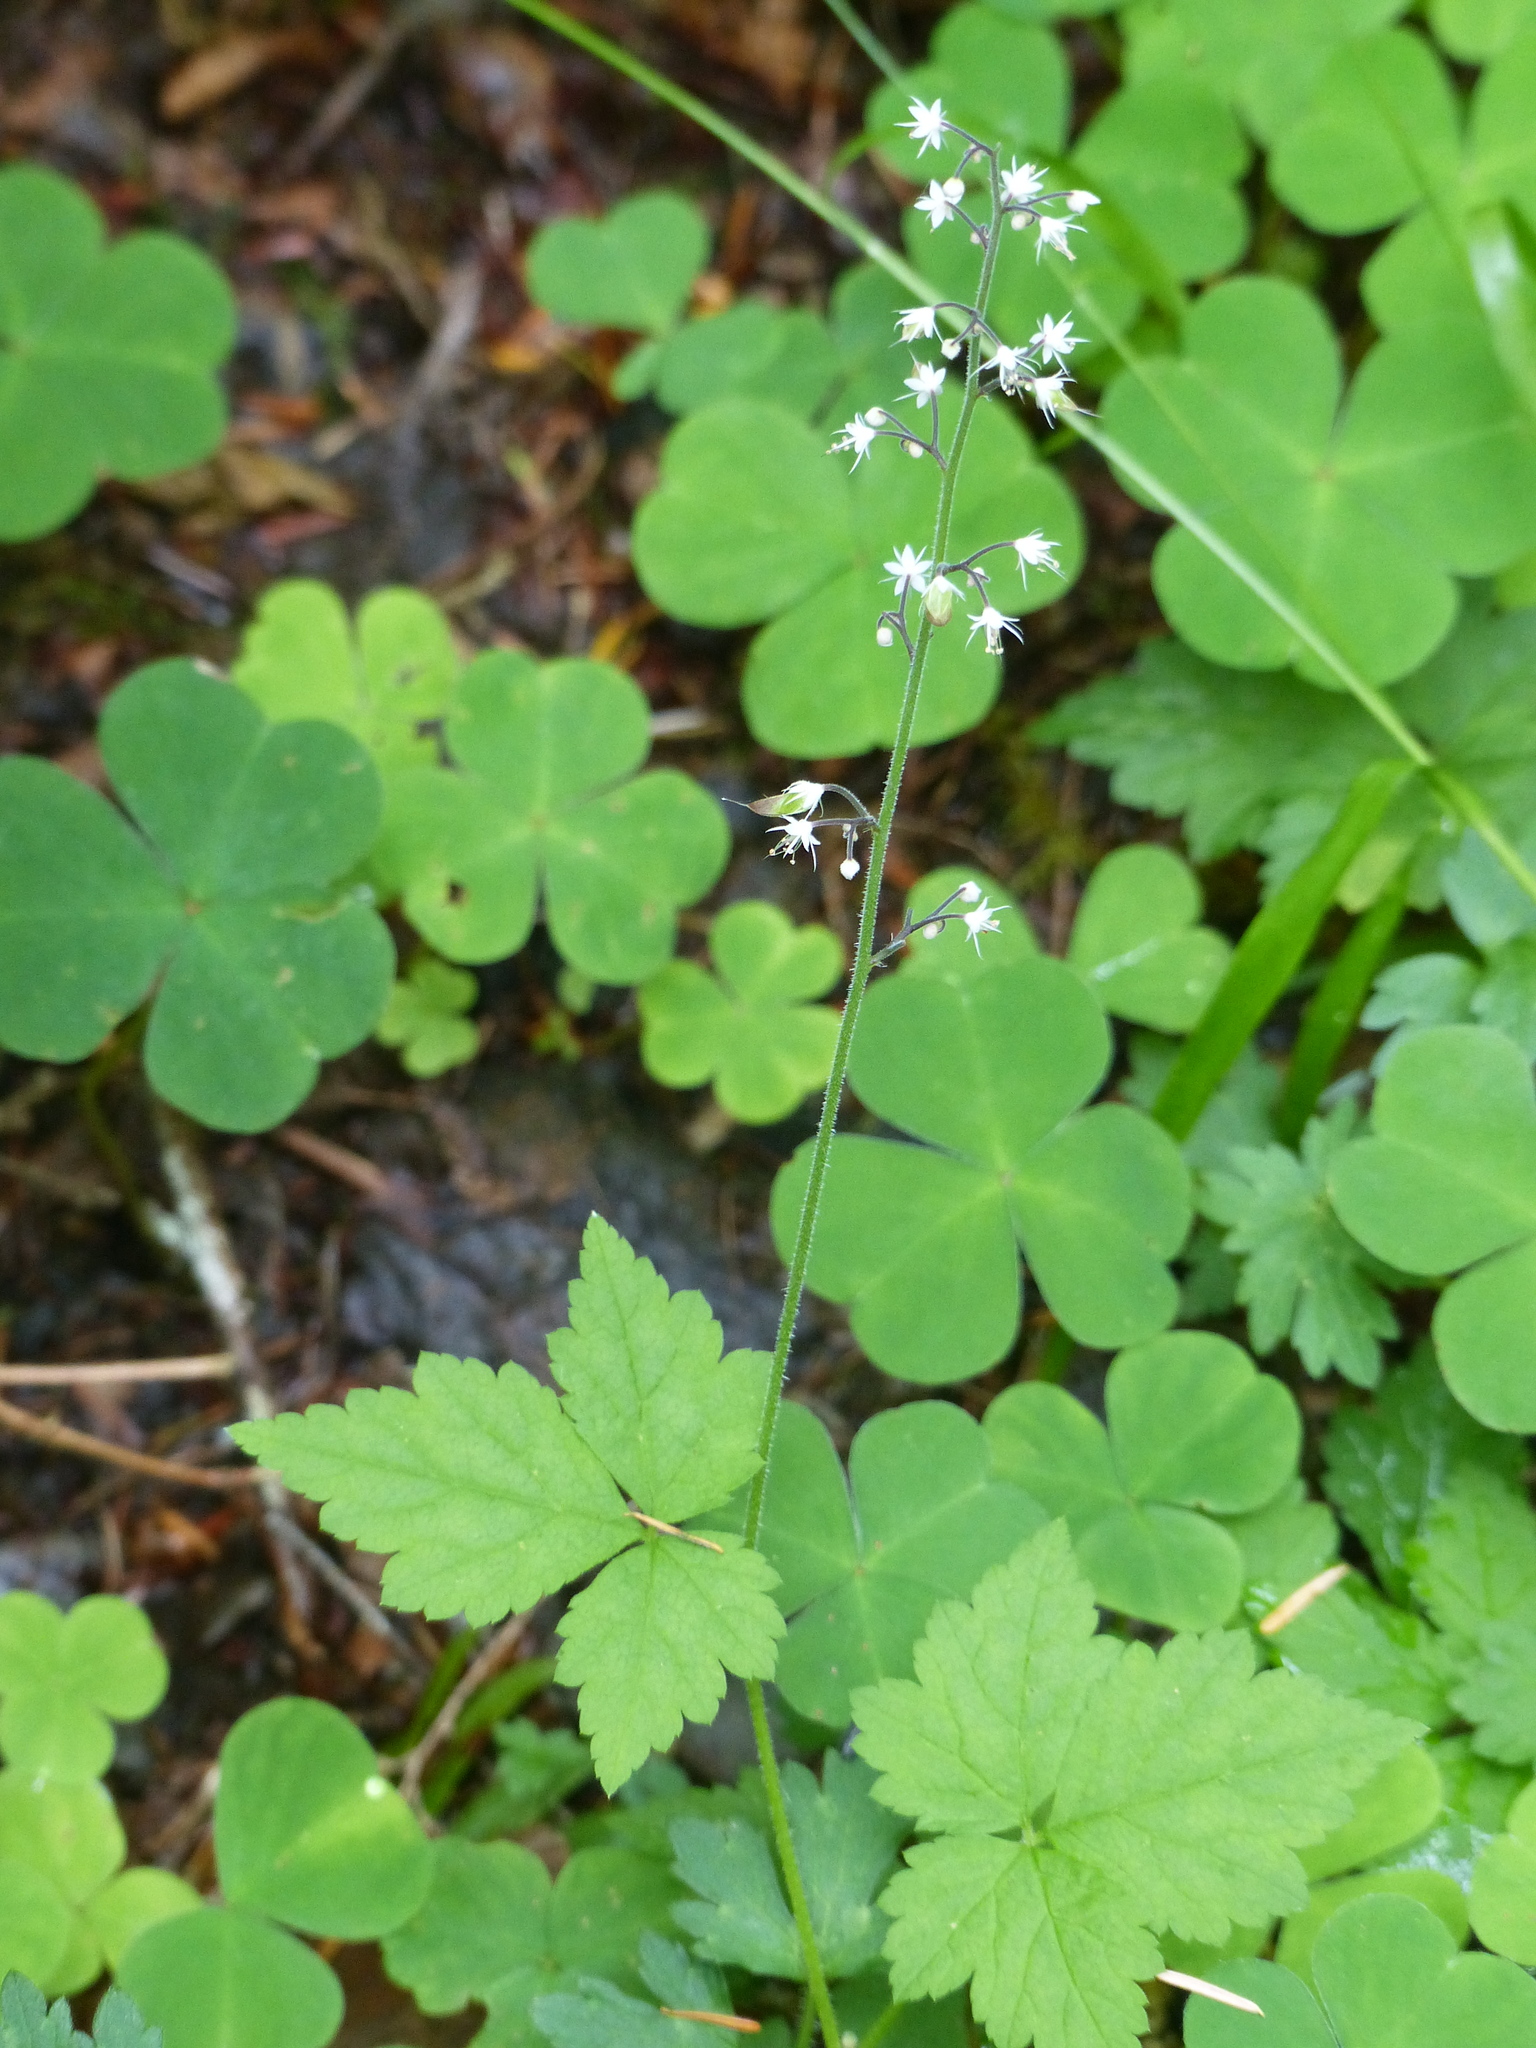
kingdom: Plantae
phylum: Tracheophyta
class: Magnoliopsida
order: Saxifragales
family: Saxifragaceae
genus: Tiarella
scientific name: Tiarella trifoliata
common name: Sugar-scoop
